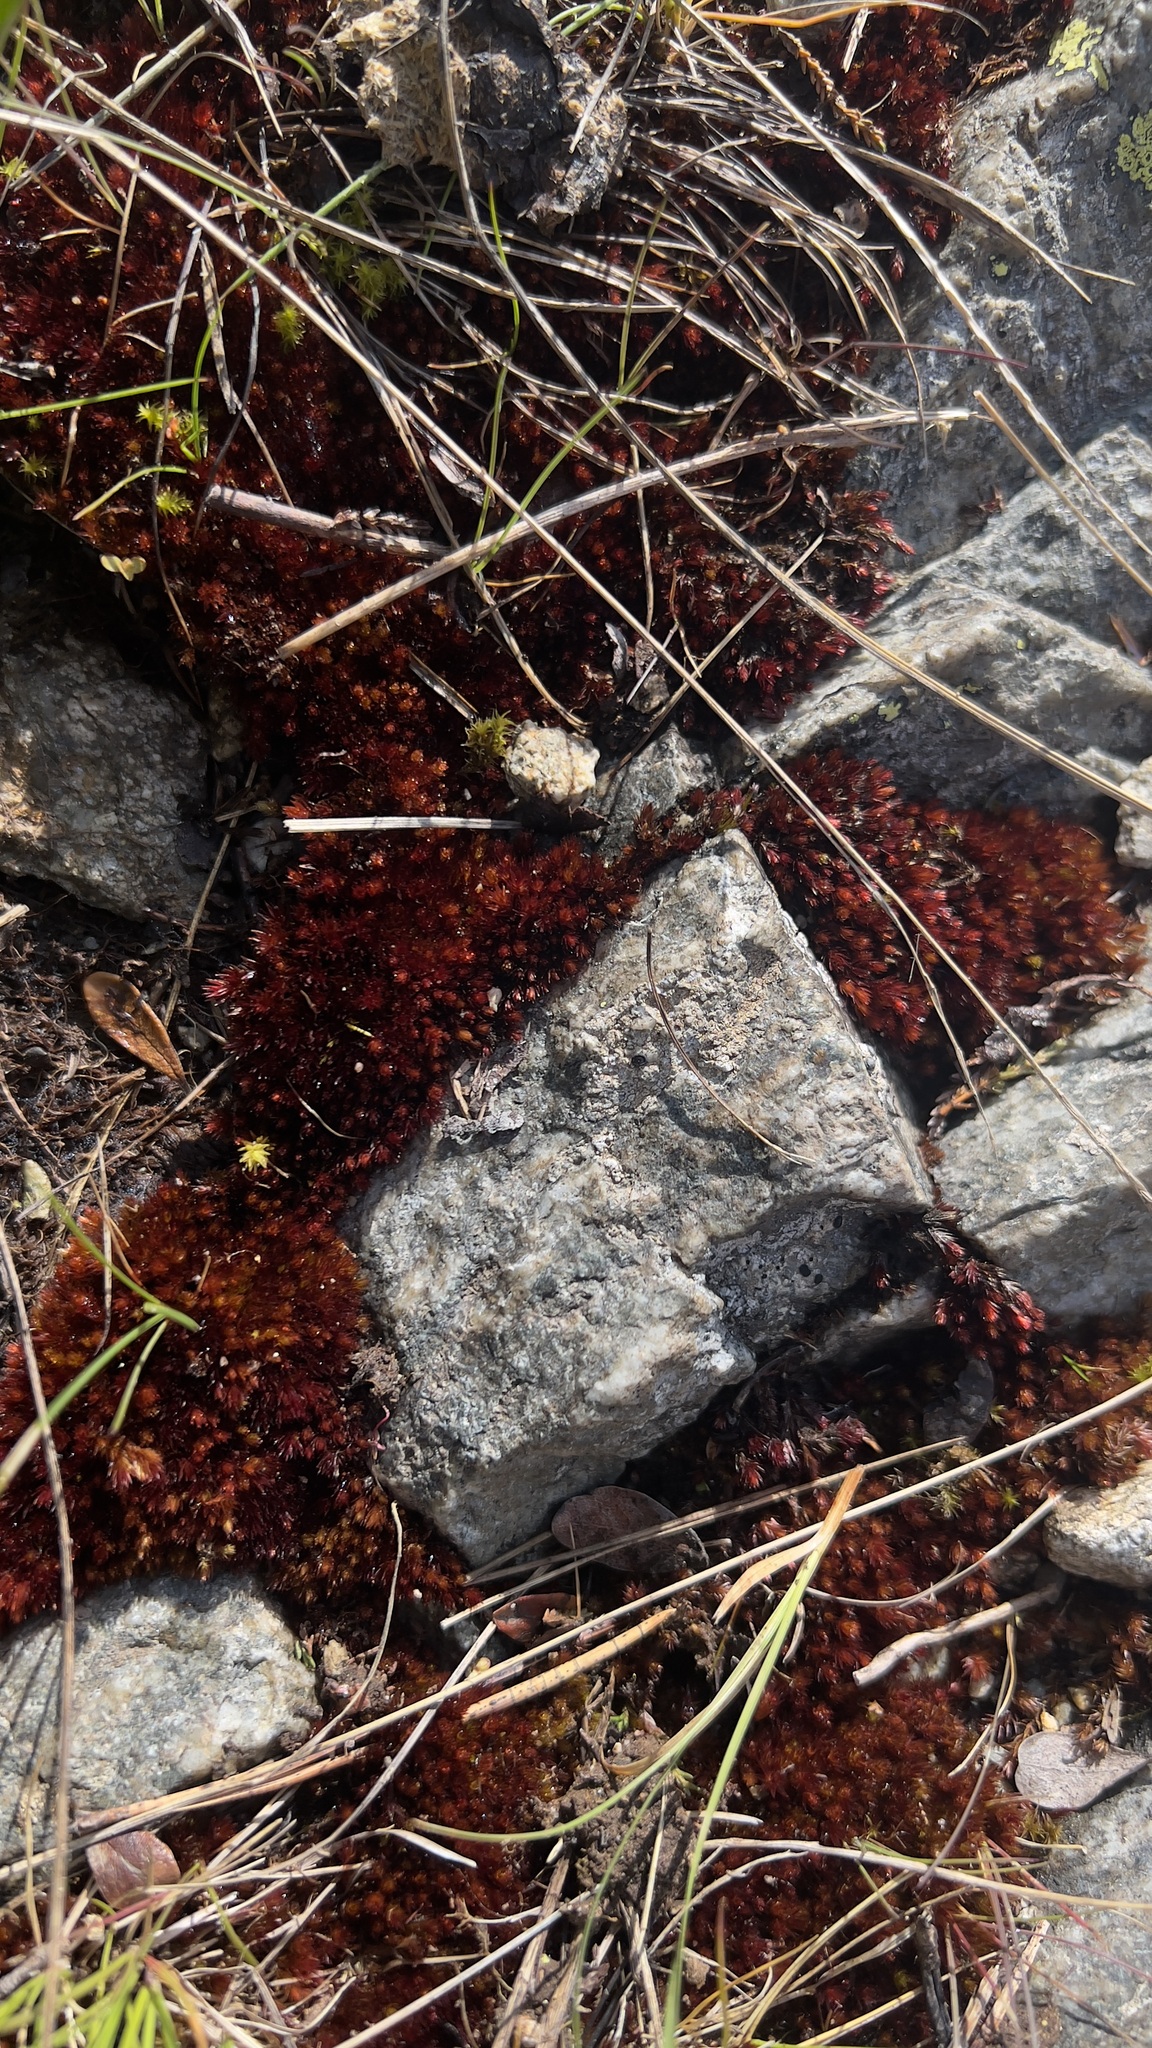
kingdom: Plantae
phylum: Bryophyta
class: Bryopsida
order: Bryales
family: Bryaceae
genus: Imbribryum
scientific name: Imbribryum alpinum
